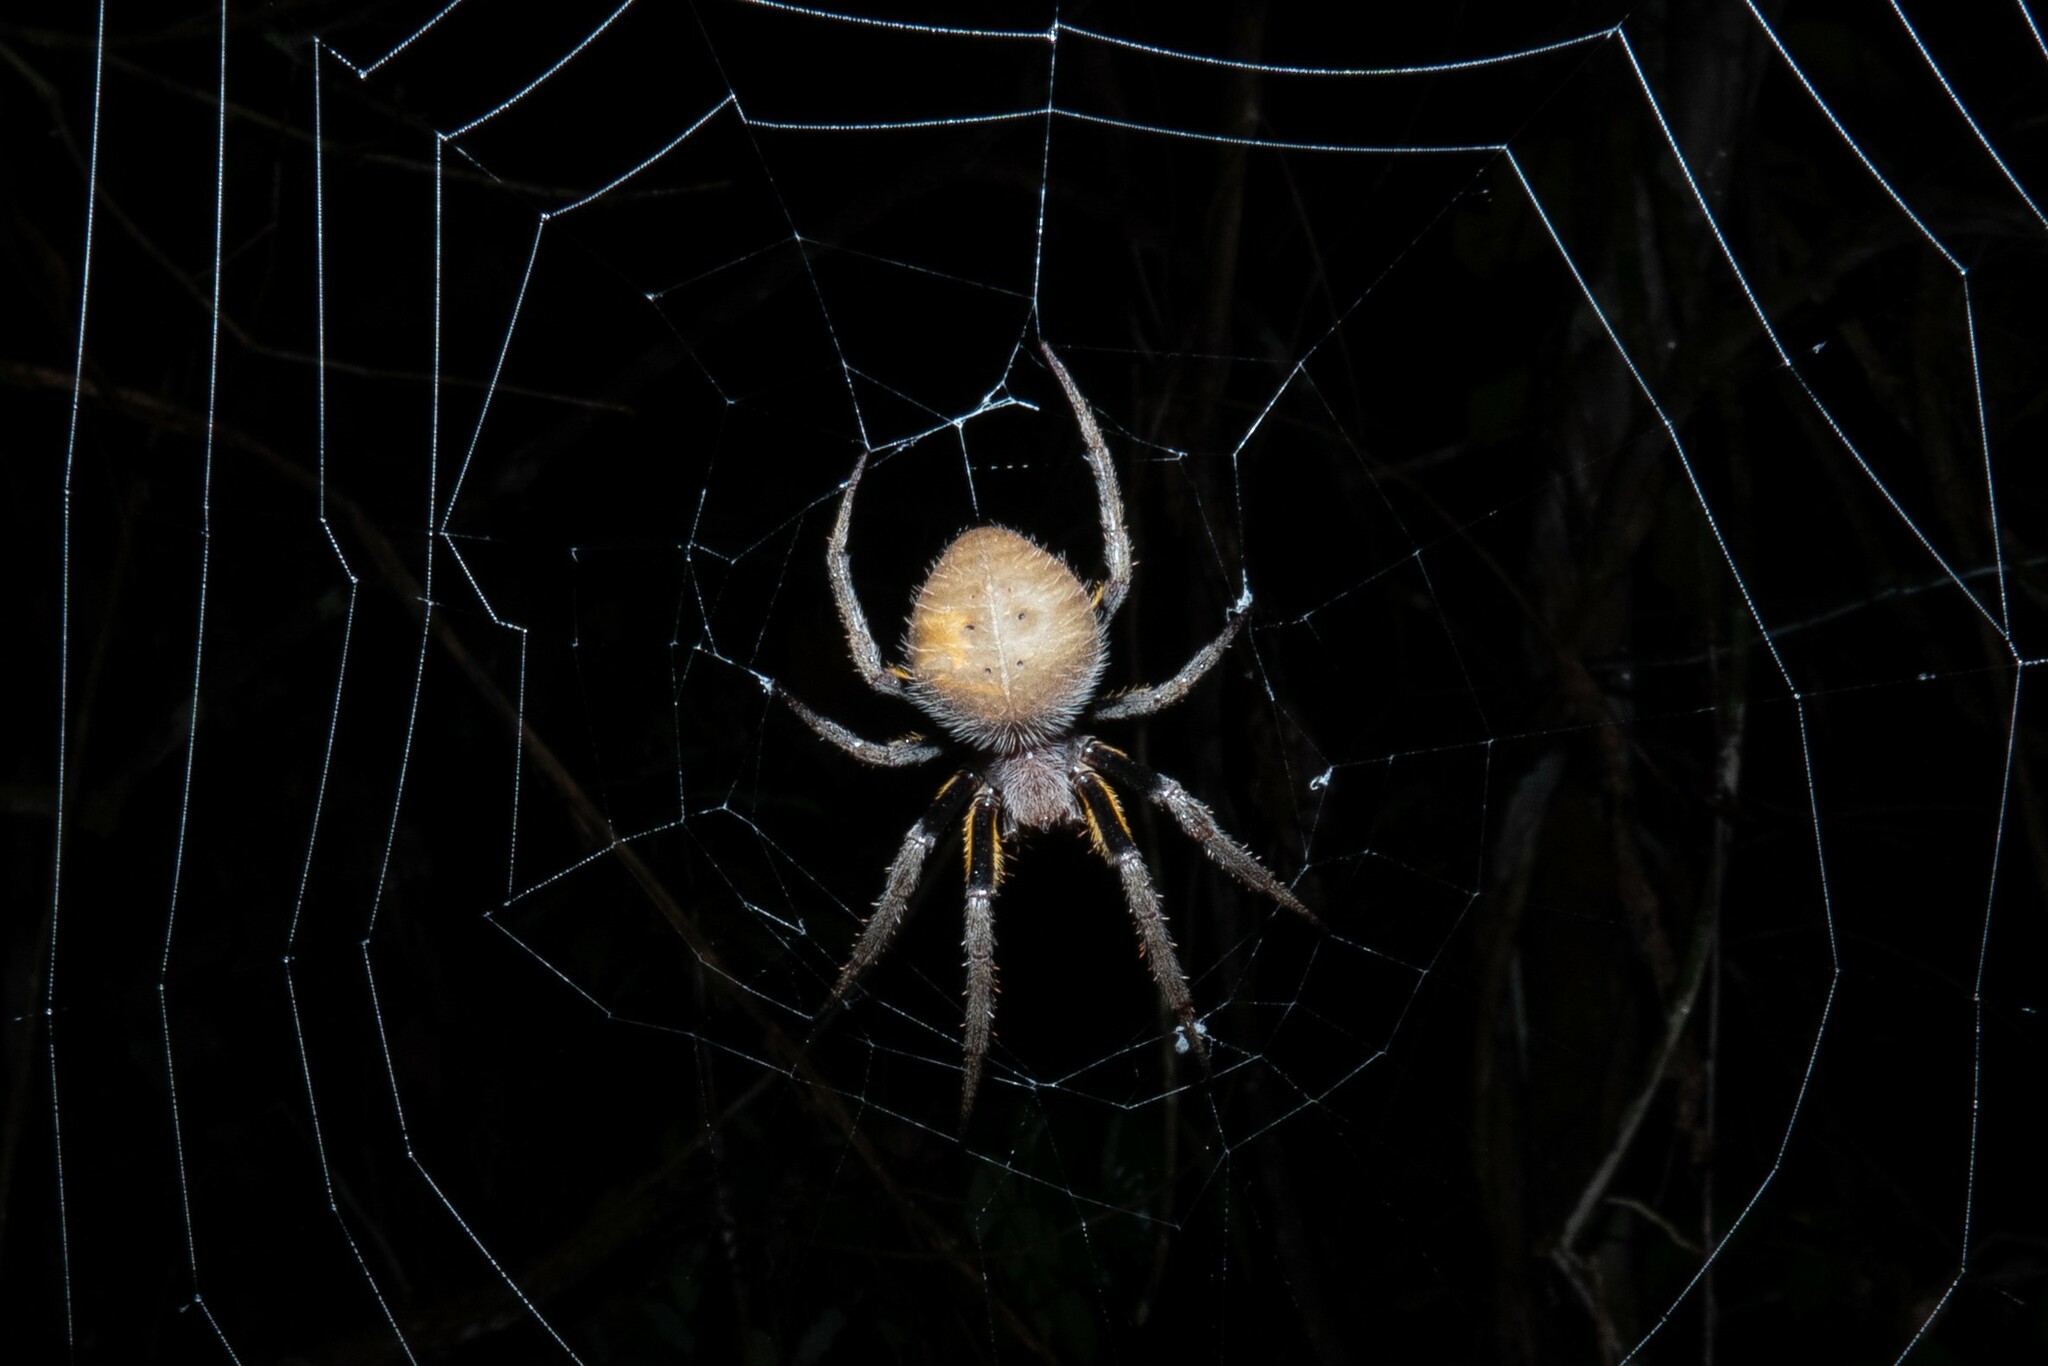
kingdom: Animalia
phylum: Arthropoda
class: Arachnida
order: Araneae
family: Araneidae
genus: Eriophora
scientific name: Eriophora fuliginea
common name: Orb weavers
